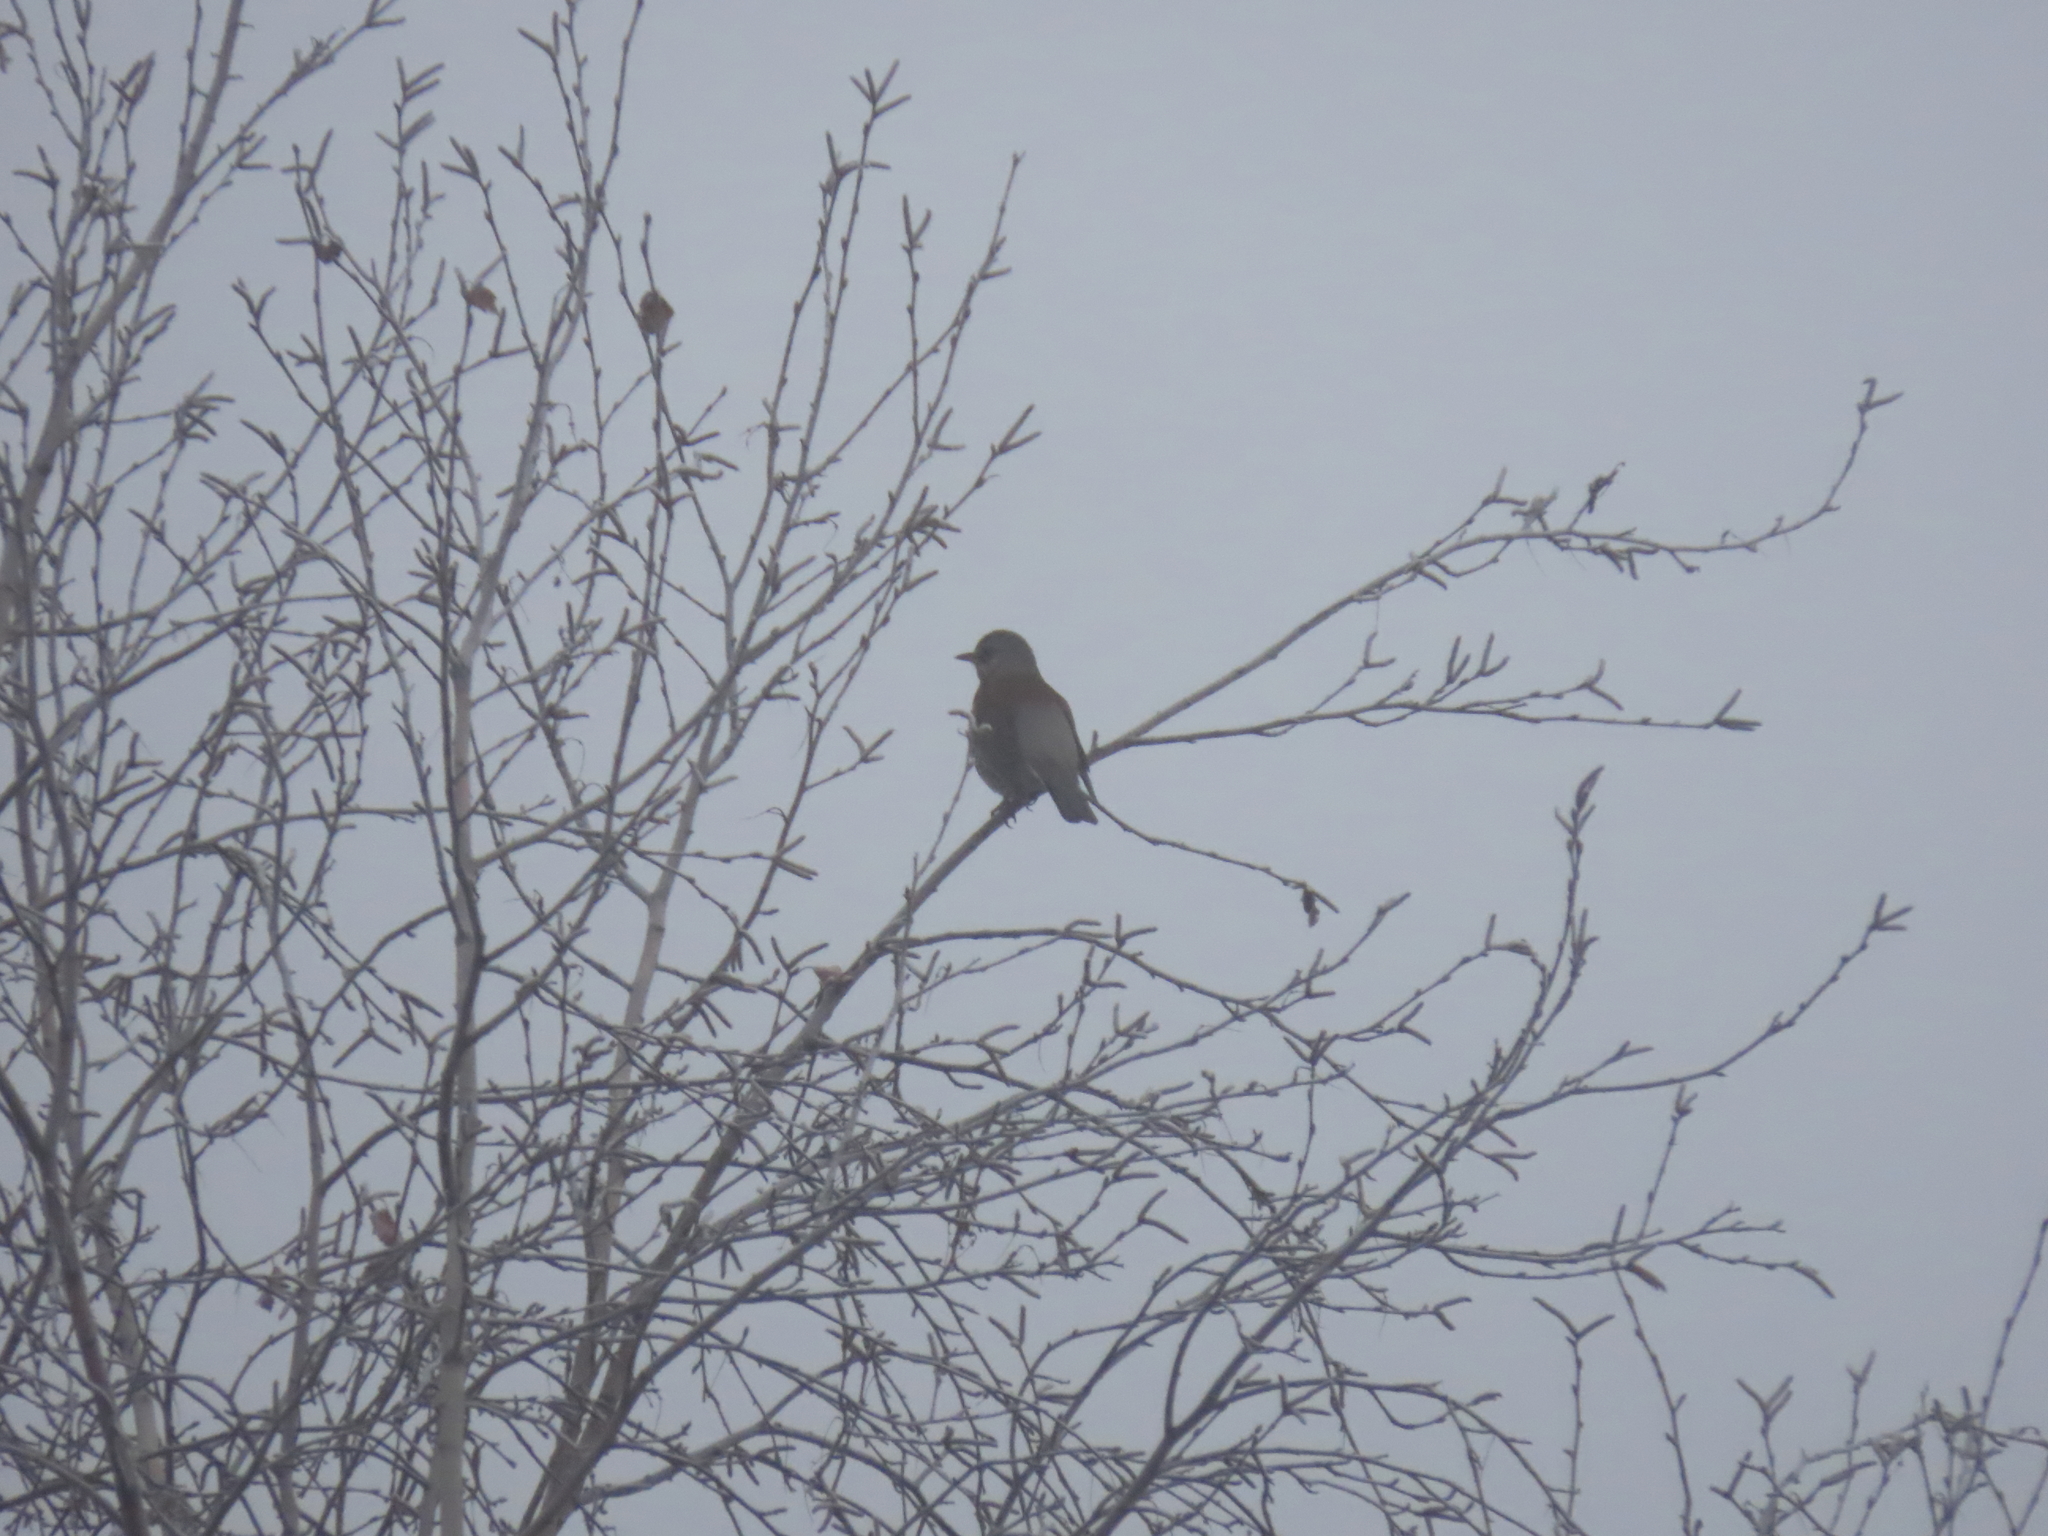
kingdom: Animalia
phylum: Chordata
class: Aves
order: Passeriformes
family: Turdidae
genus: Turdus
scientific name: Turdus pilaris
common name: Fieldfare
